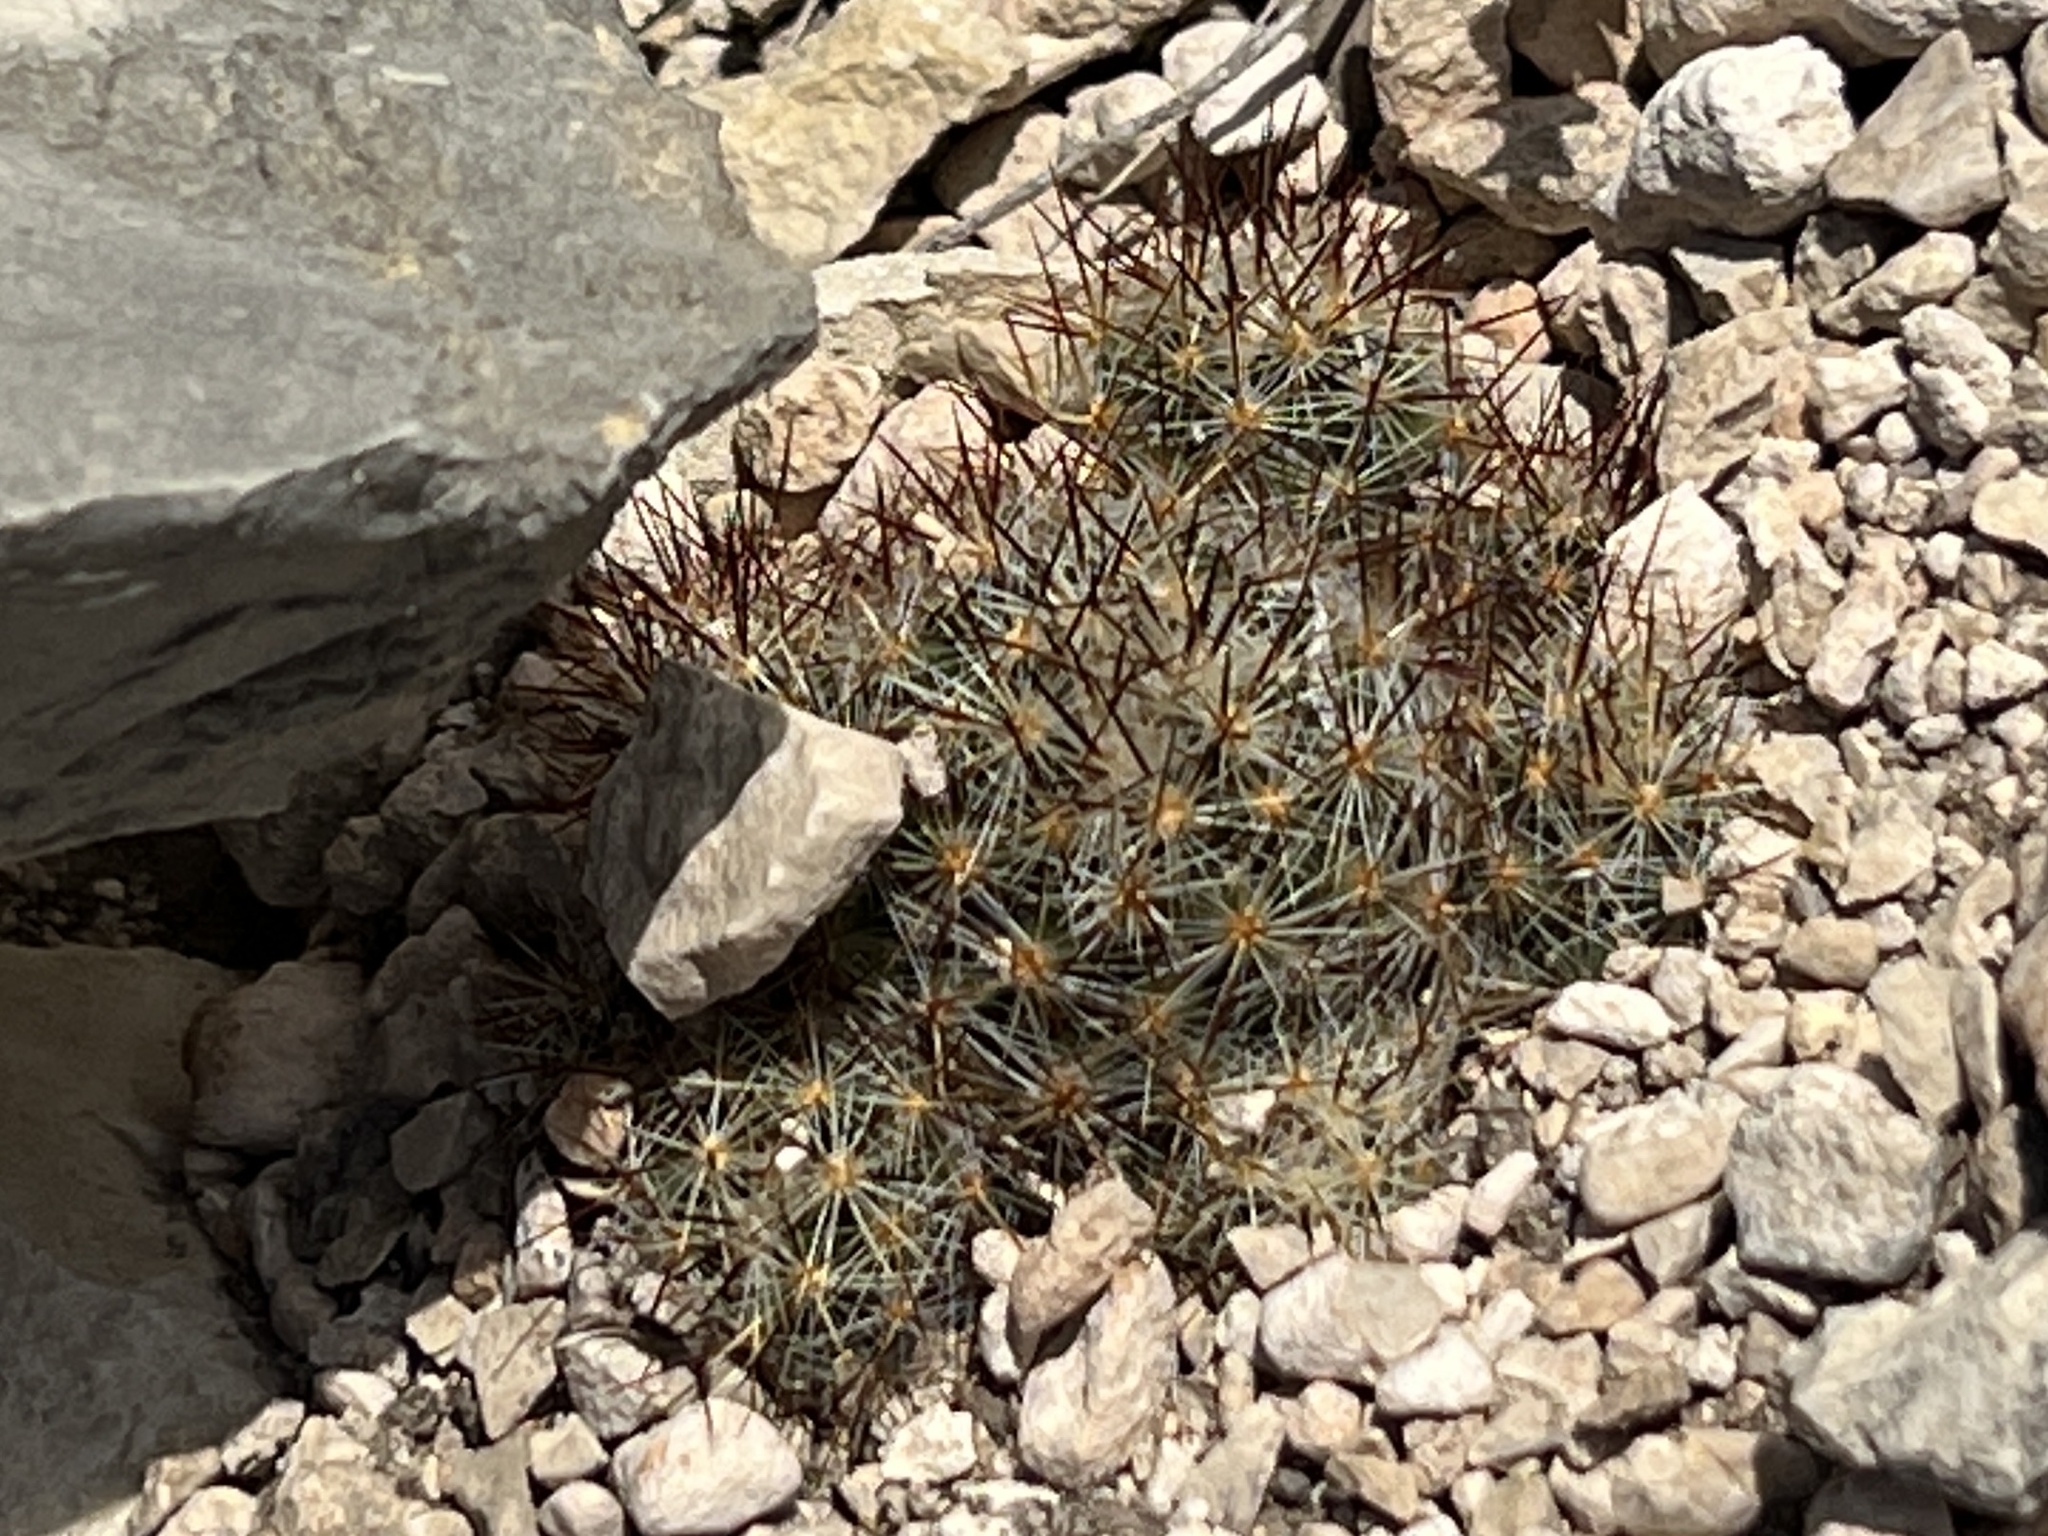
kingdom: Plantae
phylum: Tracheophyta
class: Magnoliopsida
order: Caryophyllales
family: Cactaceae
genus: Pelecyphora
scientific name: Pelecyphora emskoetteriana
